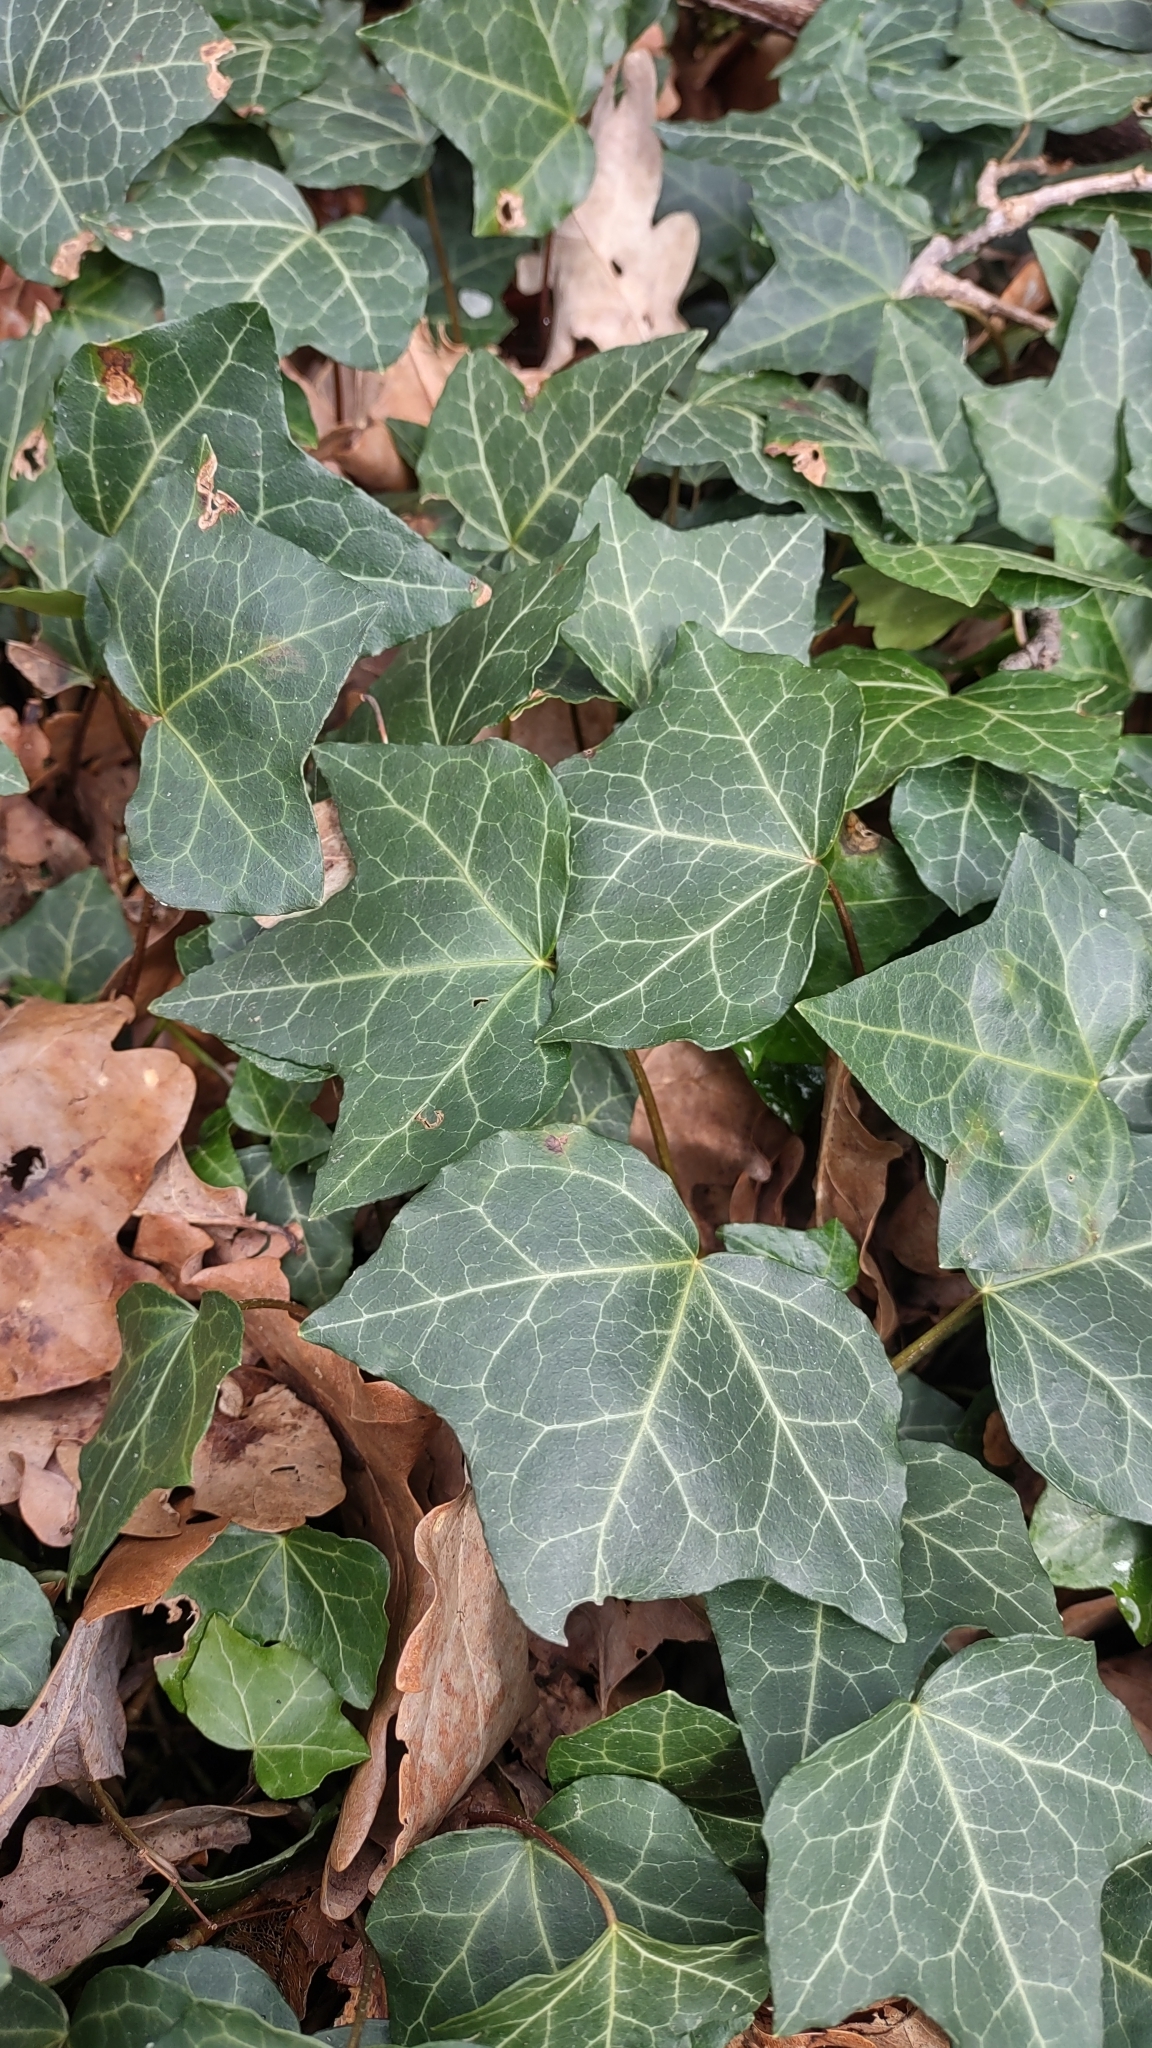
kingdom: Plantae
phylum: Tracheophyta
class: Magnoliopsida
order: Apiales
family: Araliaceae
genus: Hedera
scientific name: Hedera helix
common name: Ivy
